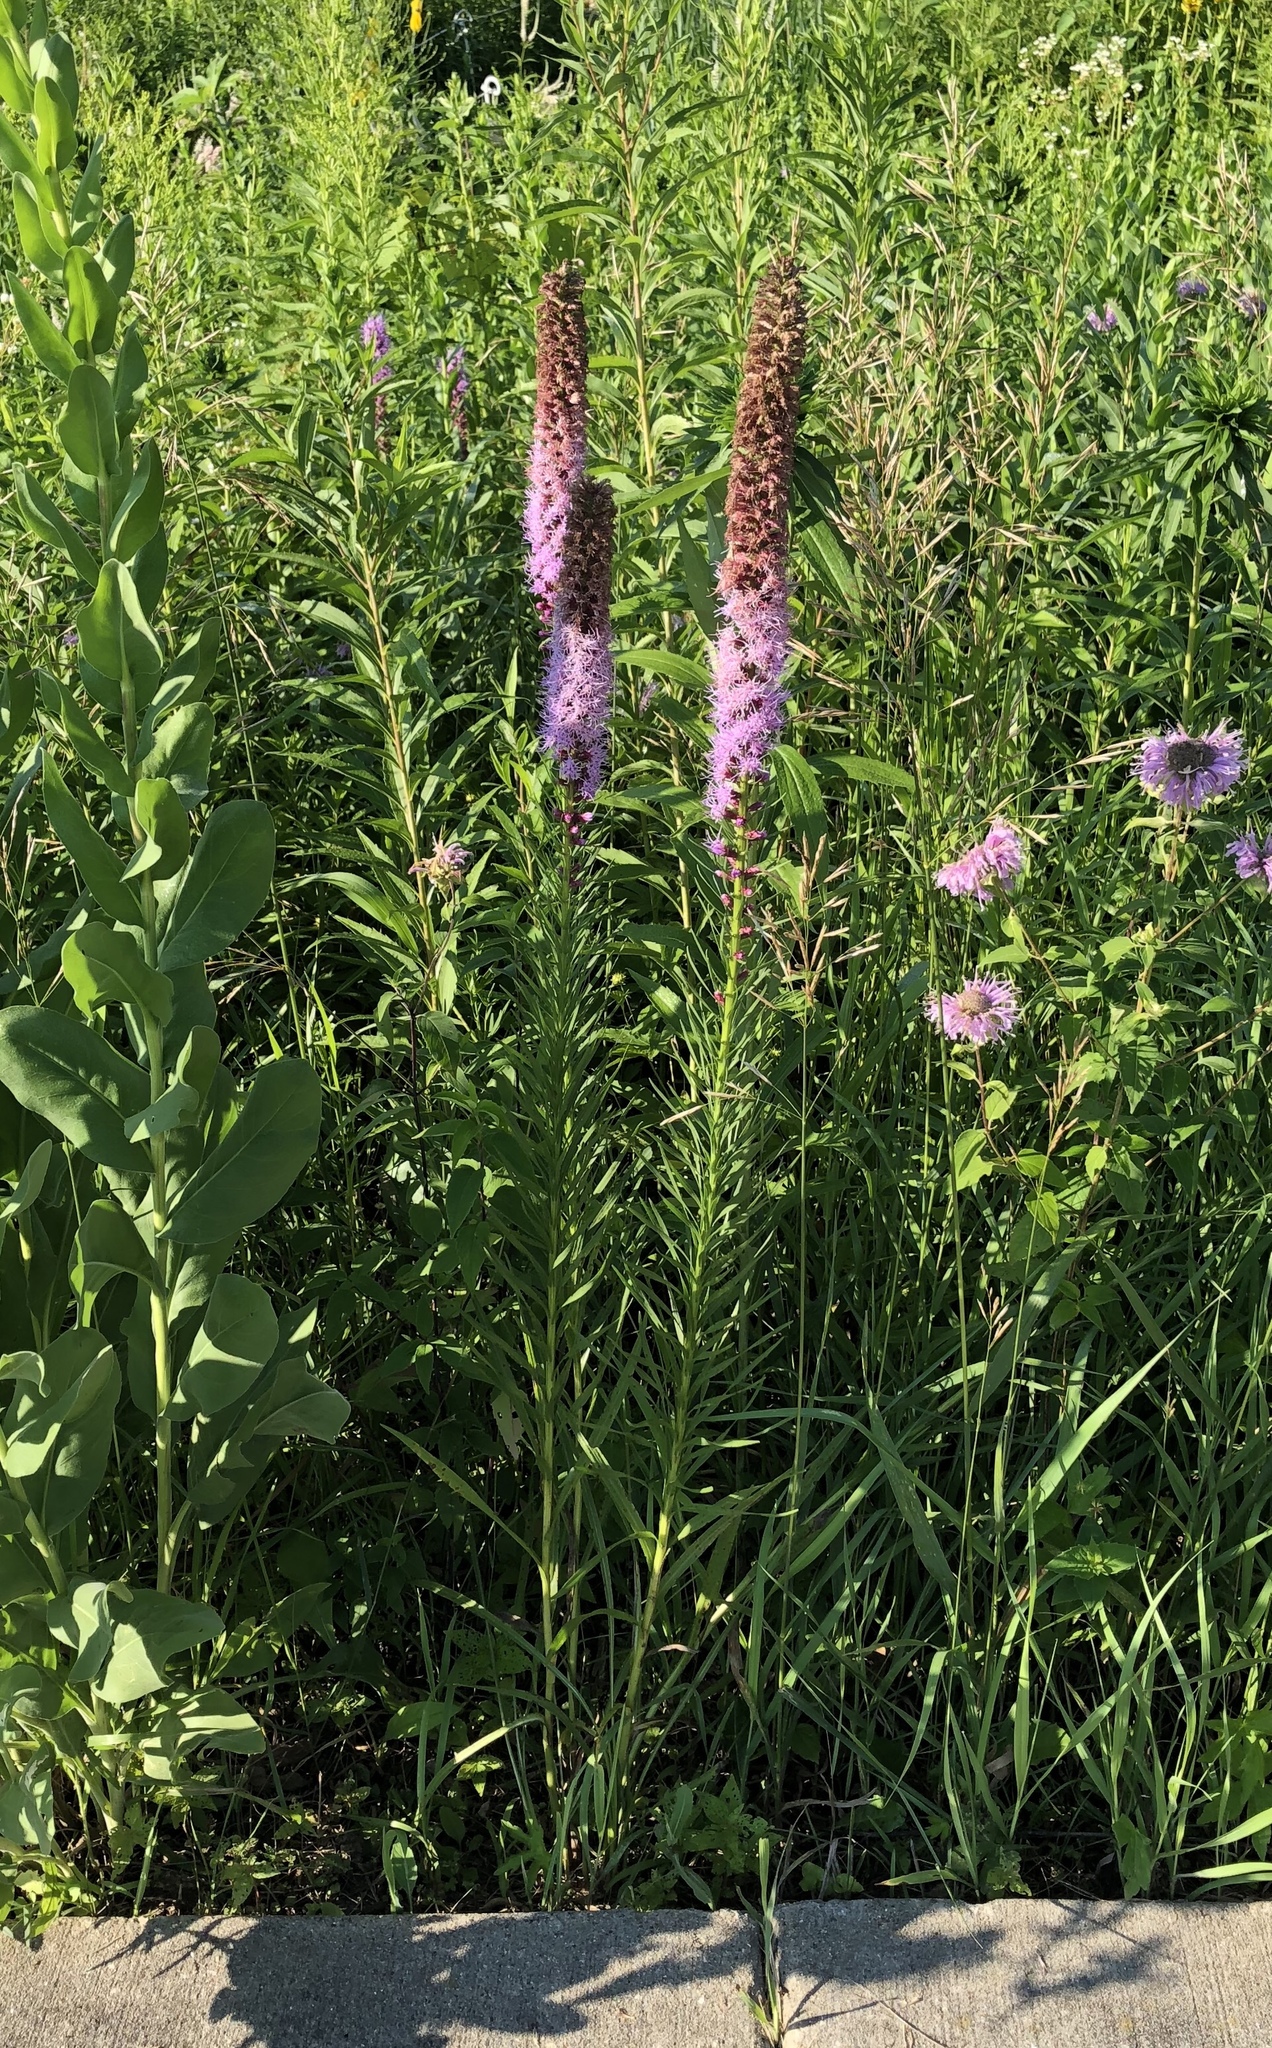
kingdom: Plantae
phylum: Tracheophyta
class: Magnoliopsida
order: Asterales
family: Asteraceae
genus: Liatris
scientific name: Liatris pycnostachya
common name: Cattail gayfeather
